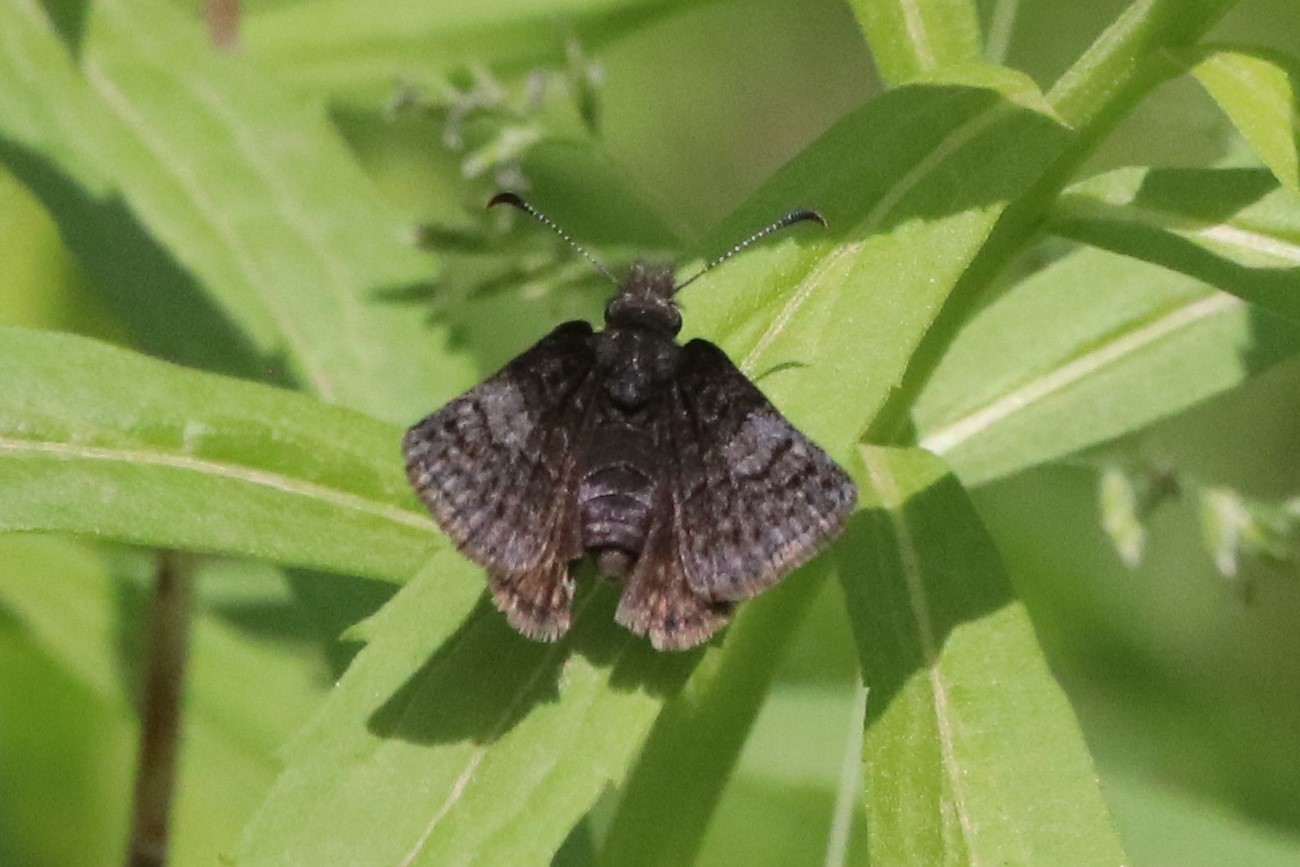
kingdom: Animalia
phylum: Arthropoda
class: Insecta
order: Lepidoptera
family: Hesperiidae
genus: Erynnis
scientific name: Erynnis icelus
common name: Dreamy duskywing
